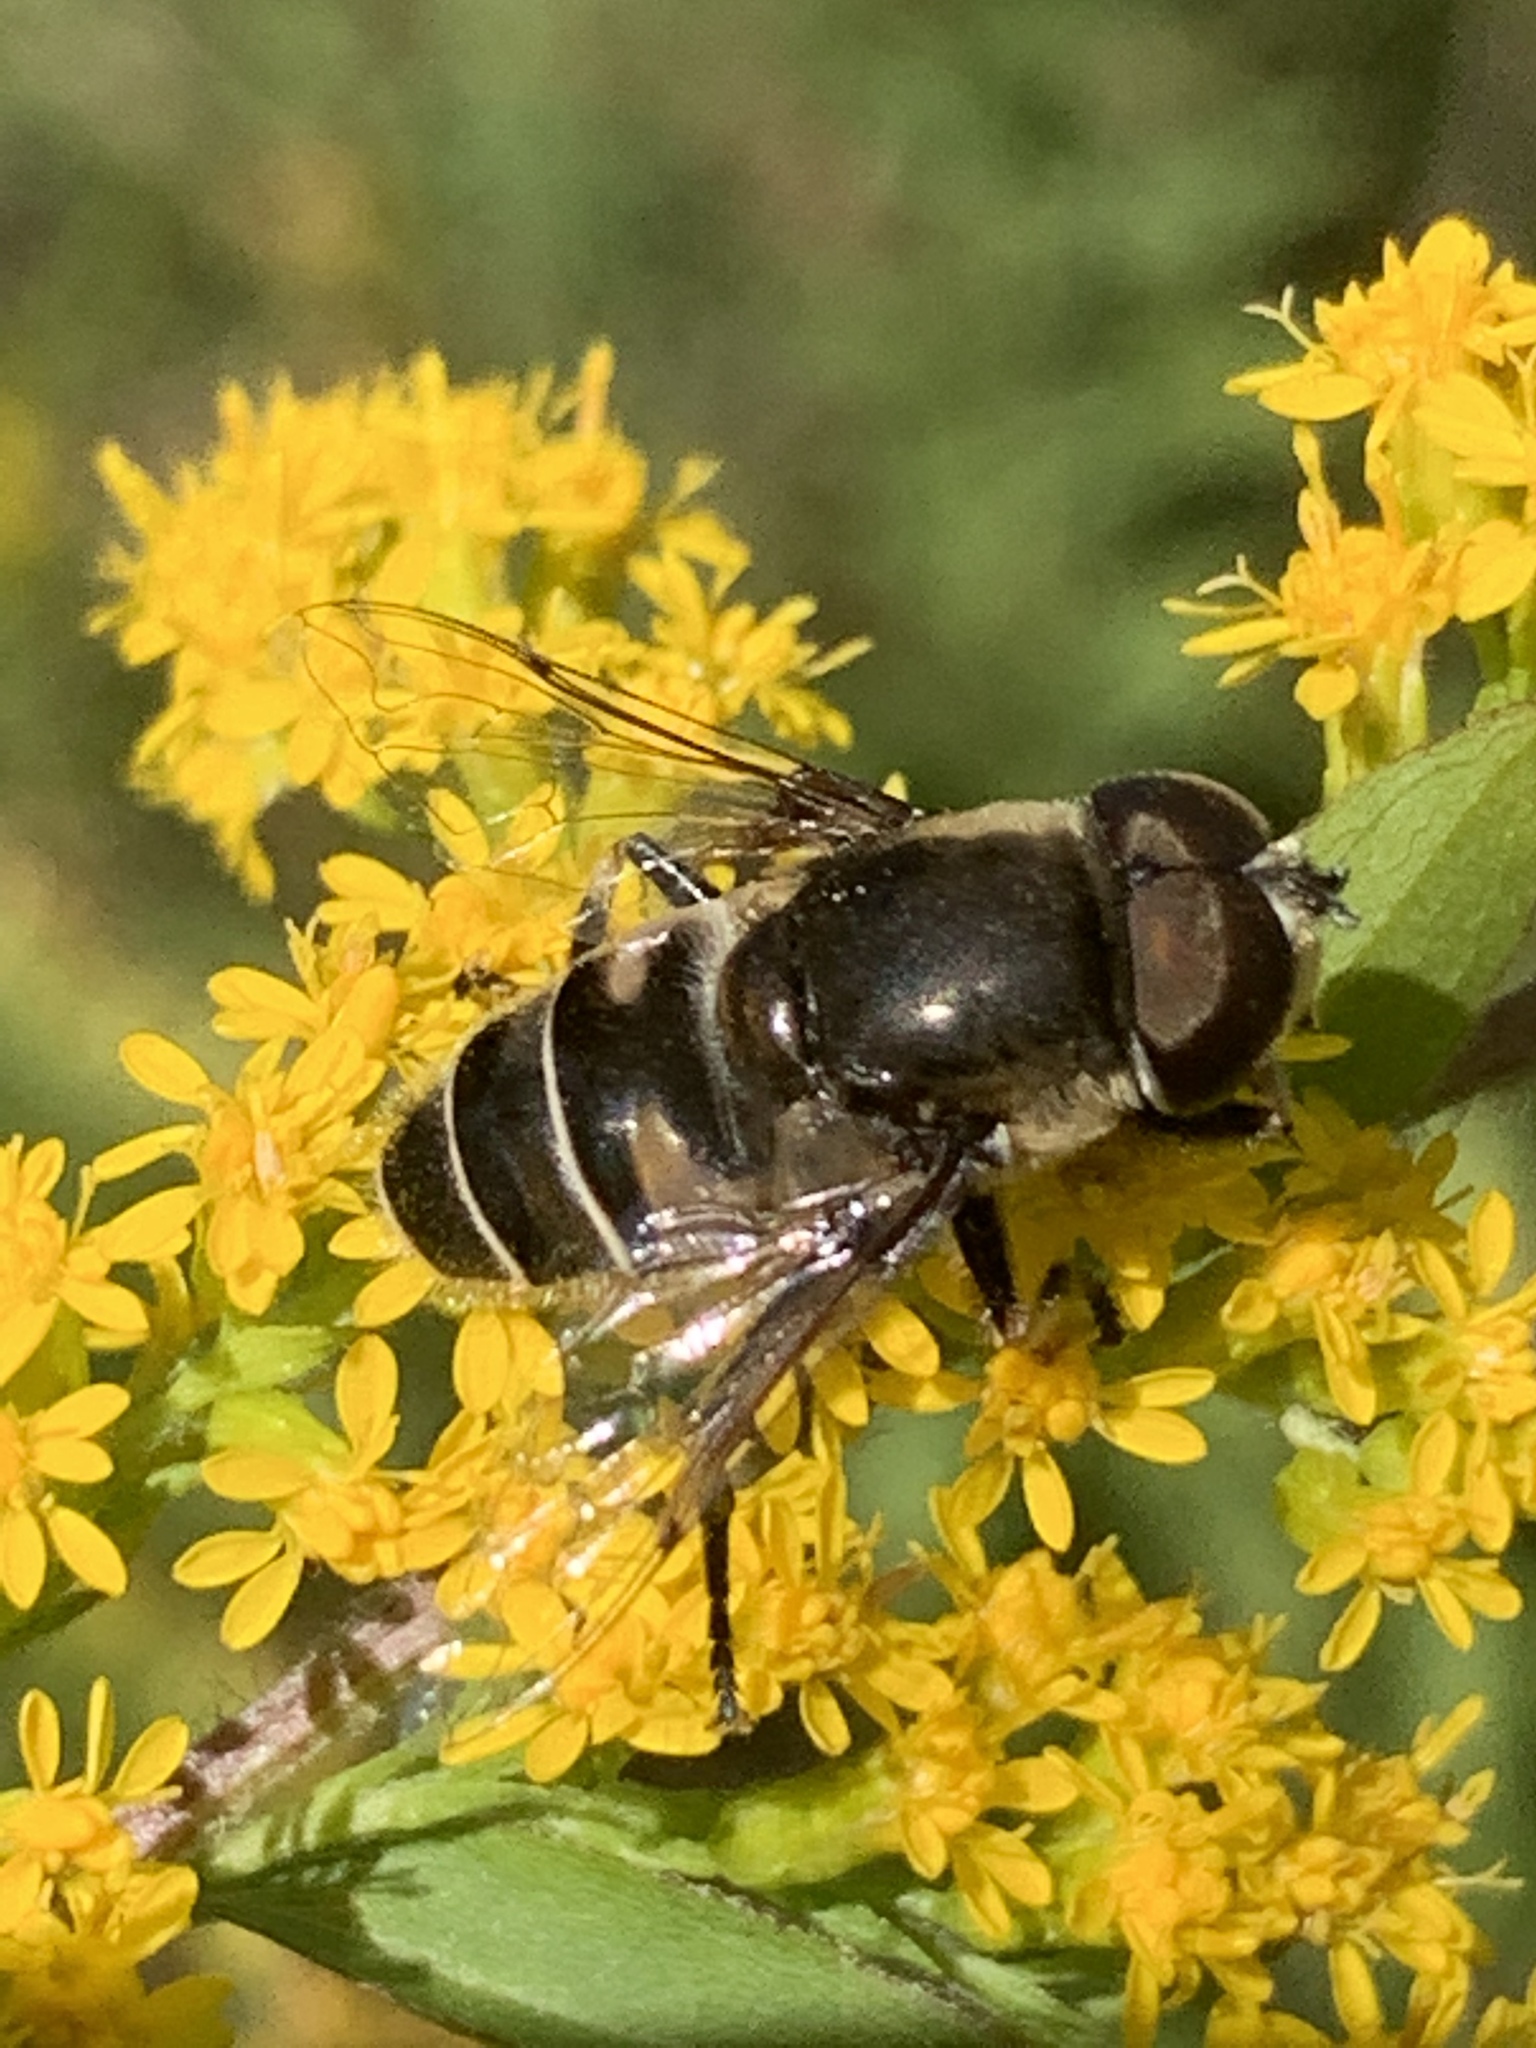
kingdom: Animalia
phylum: Arthropoda
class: Insecta
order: Diptera
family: Syrphidae
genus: Eristalis
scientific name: Eristalis dimidiata
